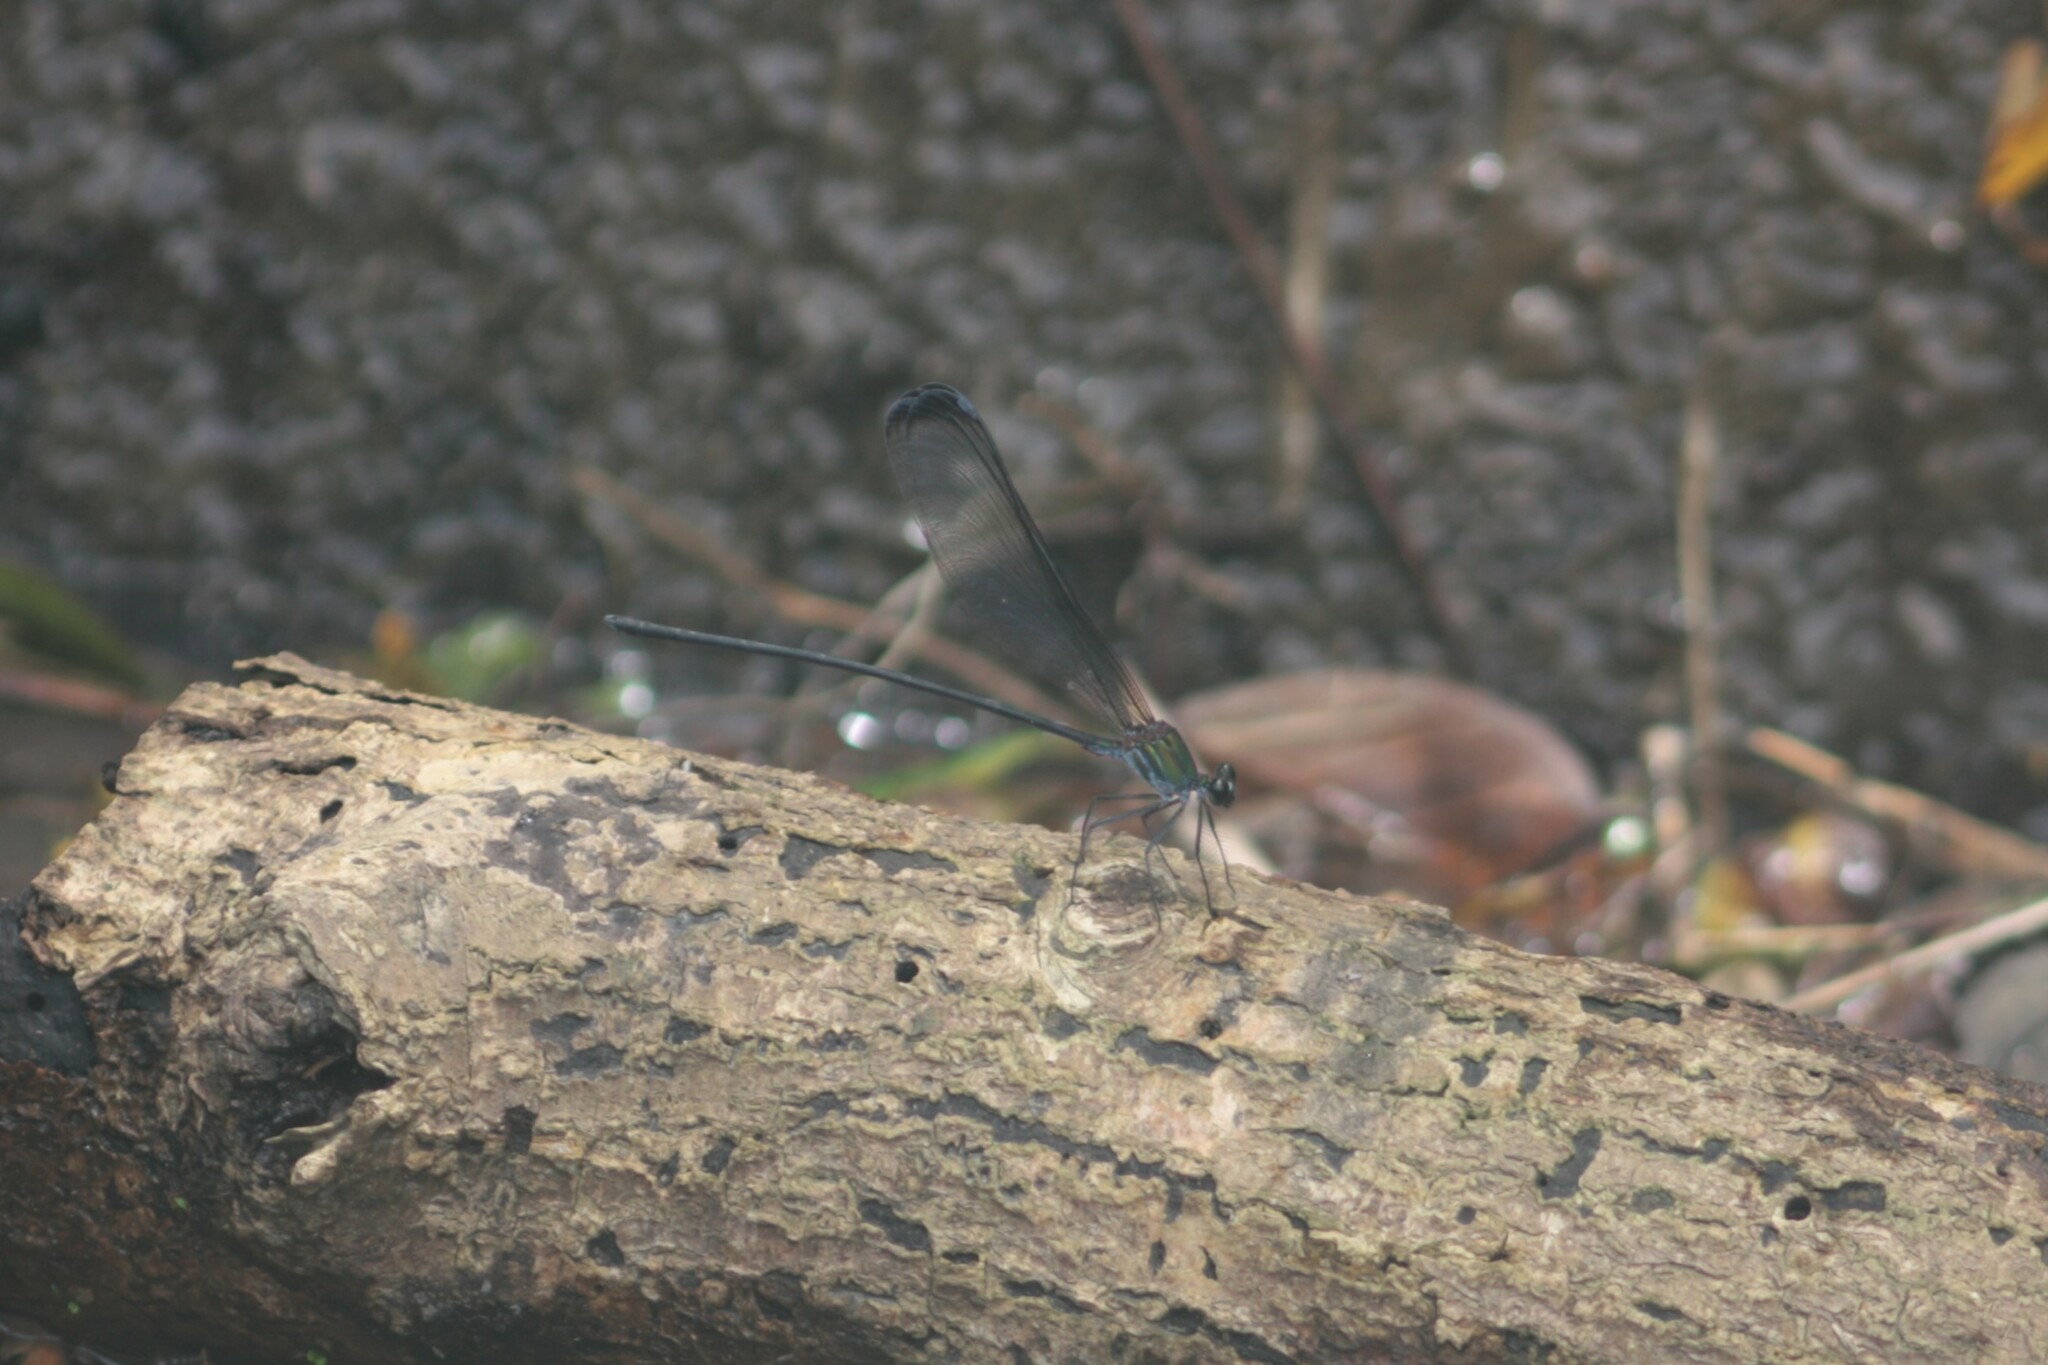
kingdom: Animalia
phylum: Arthropoda
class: Insecta
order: Odonata
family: Calopterygidae
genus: Psolodesmus
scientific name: Psolodesmus mandarinus
